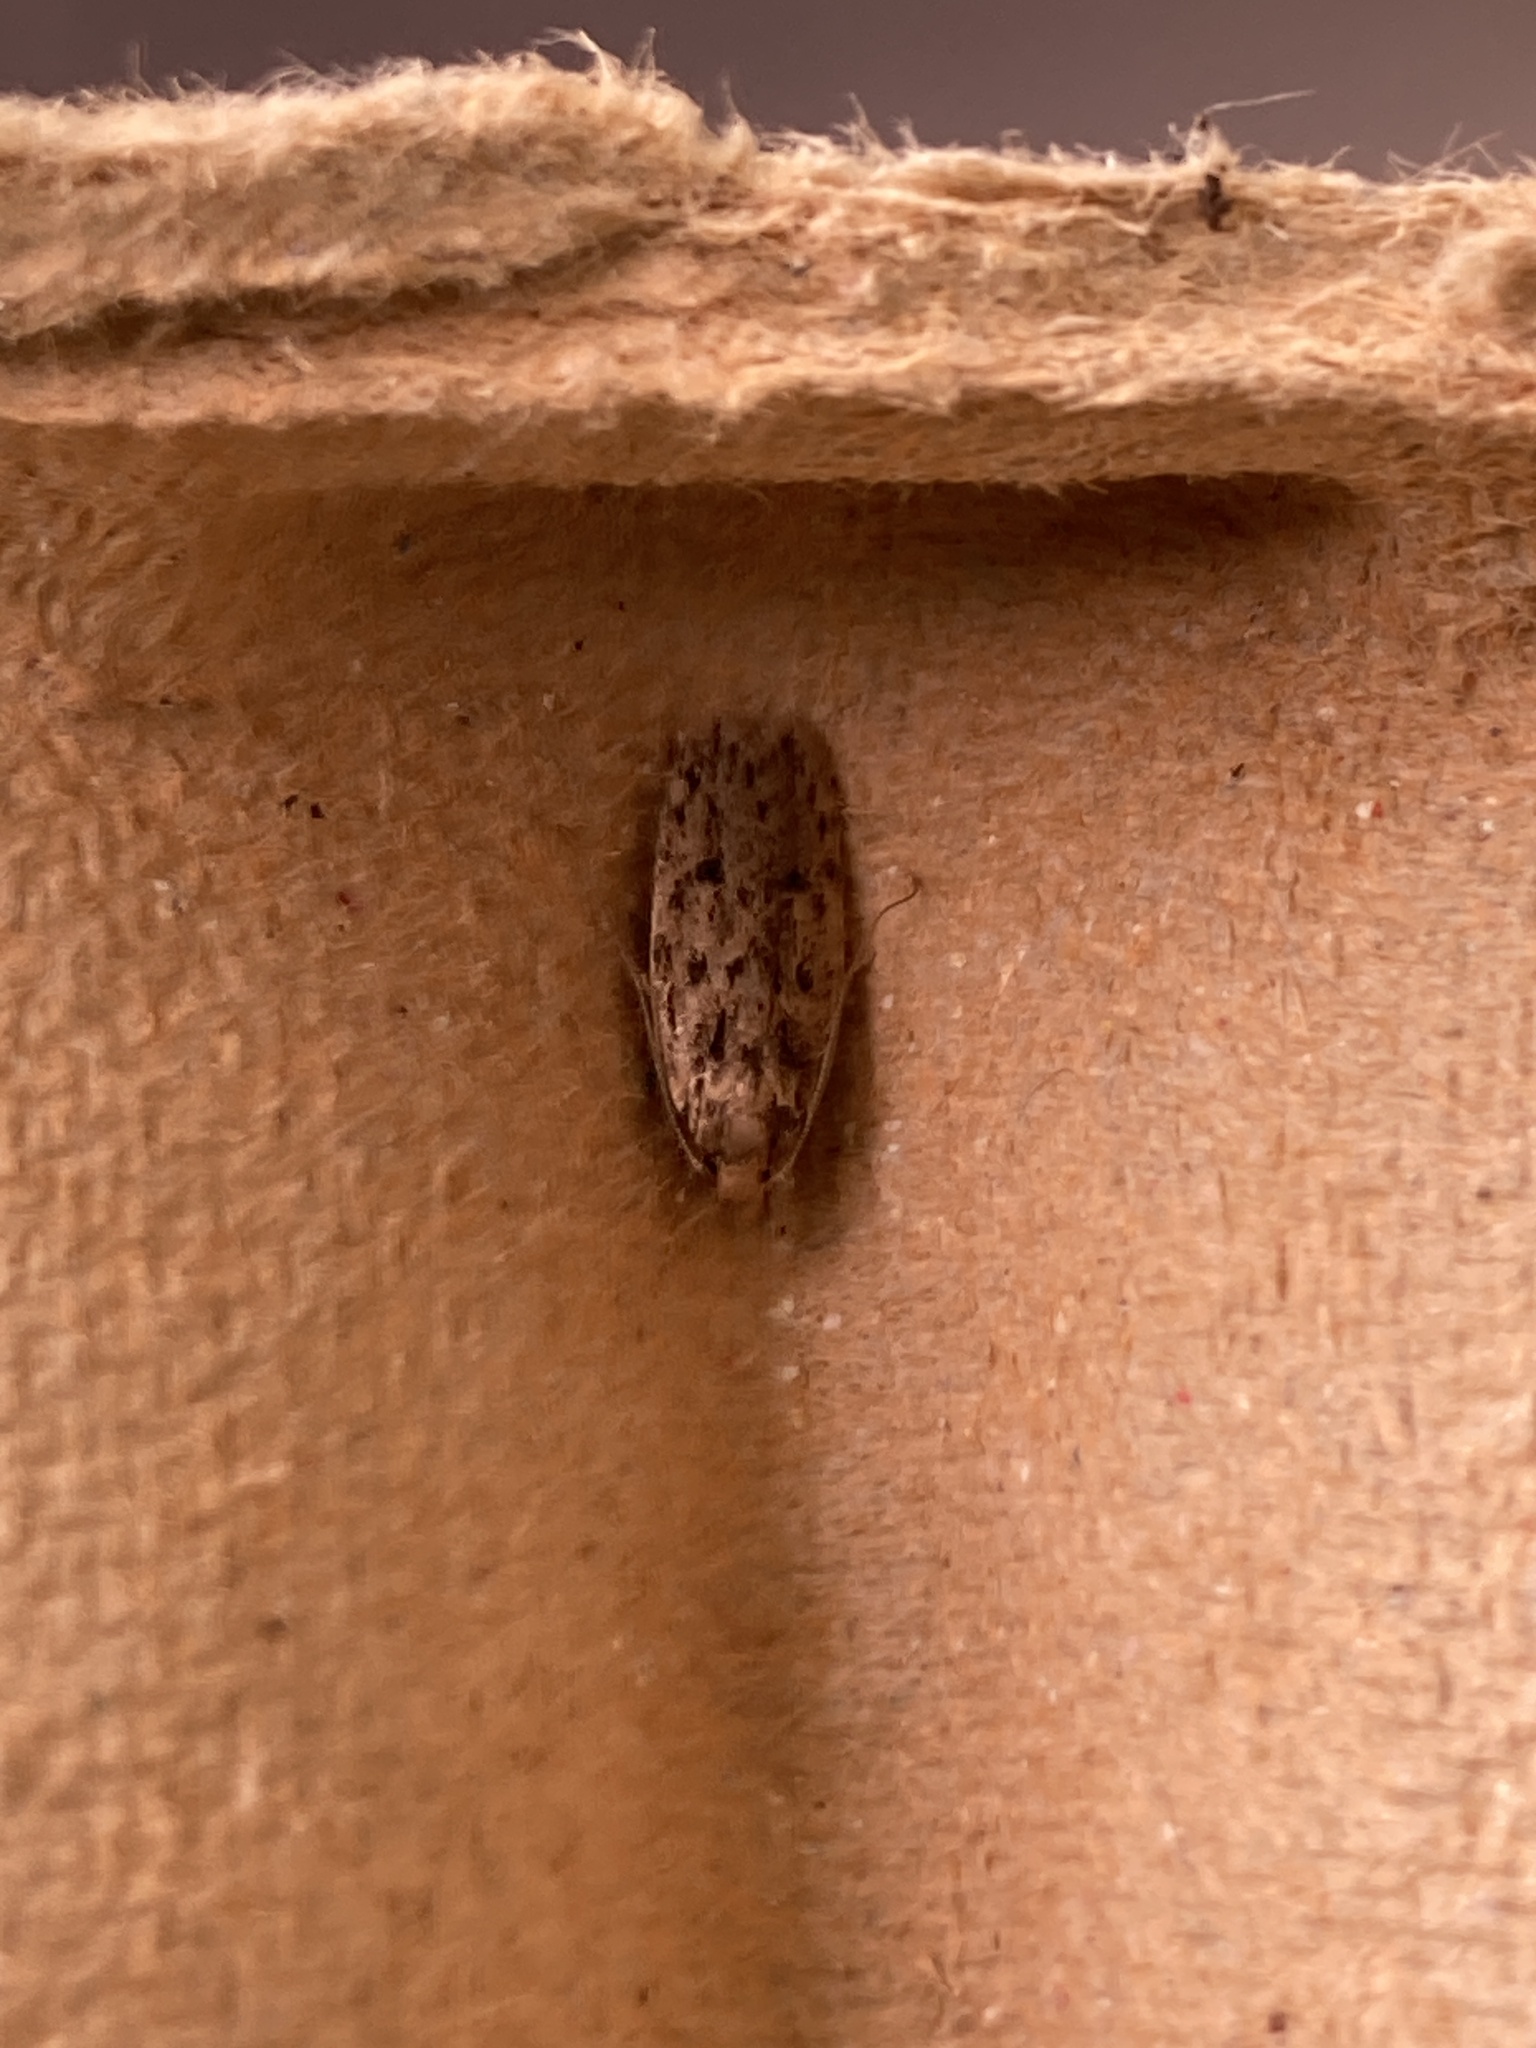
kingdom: Animalia
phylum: Arthropoda
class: Insecta
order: Lepidoptera
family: Oecophoridae
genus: Hofmannophila
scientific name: Hofmannophila pseudospretella
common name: Brown house moth
